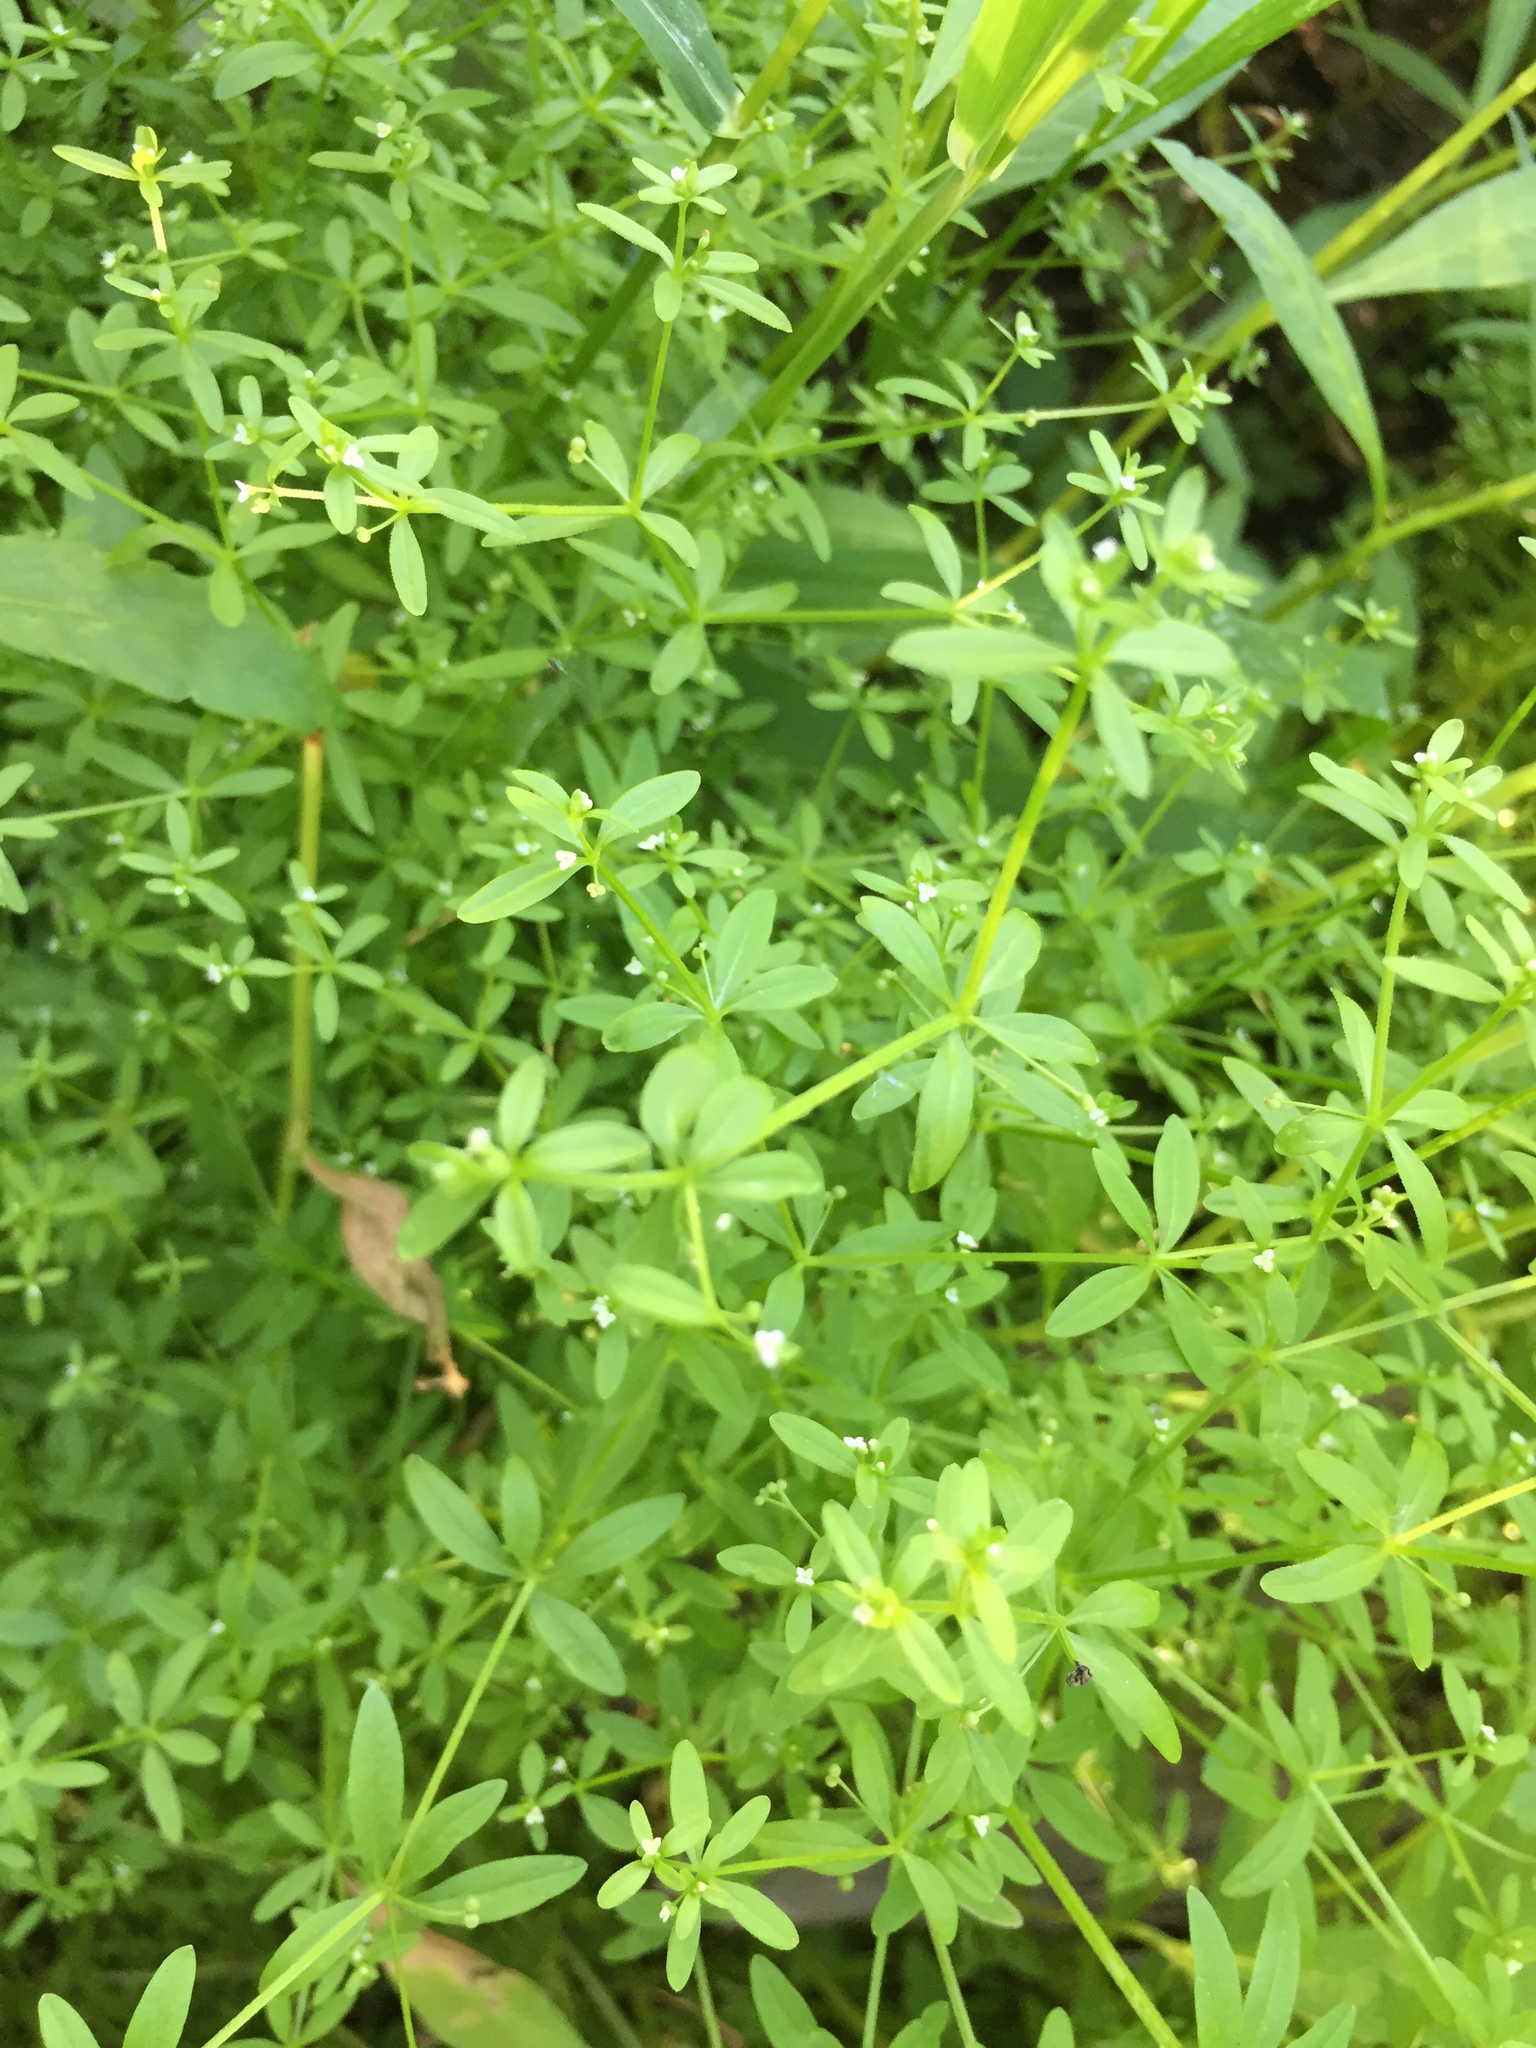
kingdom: Plantae
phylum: Tracheophyta
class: Magnoliopsida
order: Gentianales
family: Rubiaceae
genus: Galium
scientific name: Galium trifidum
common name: Small bedstraw
